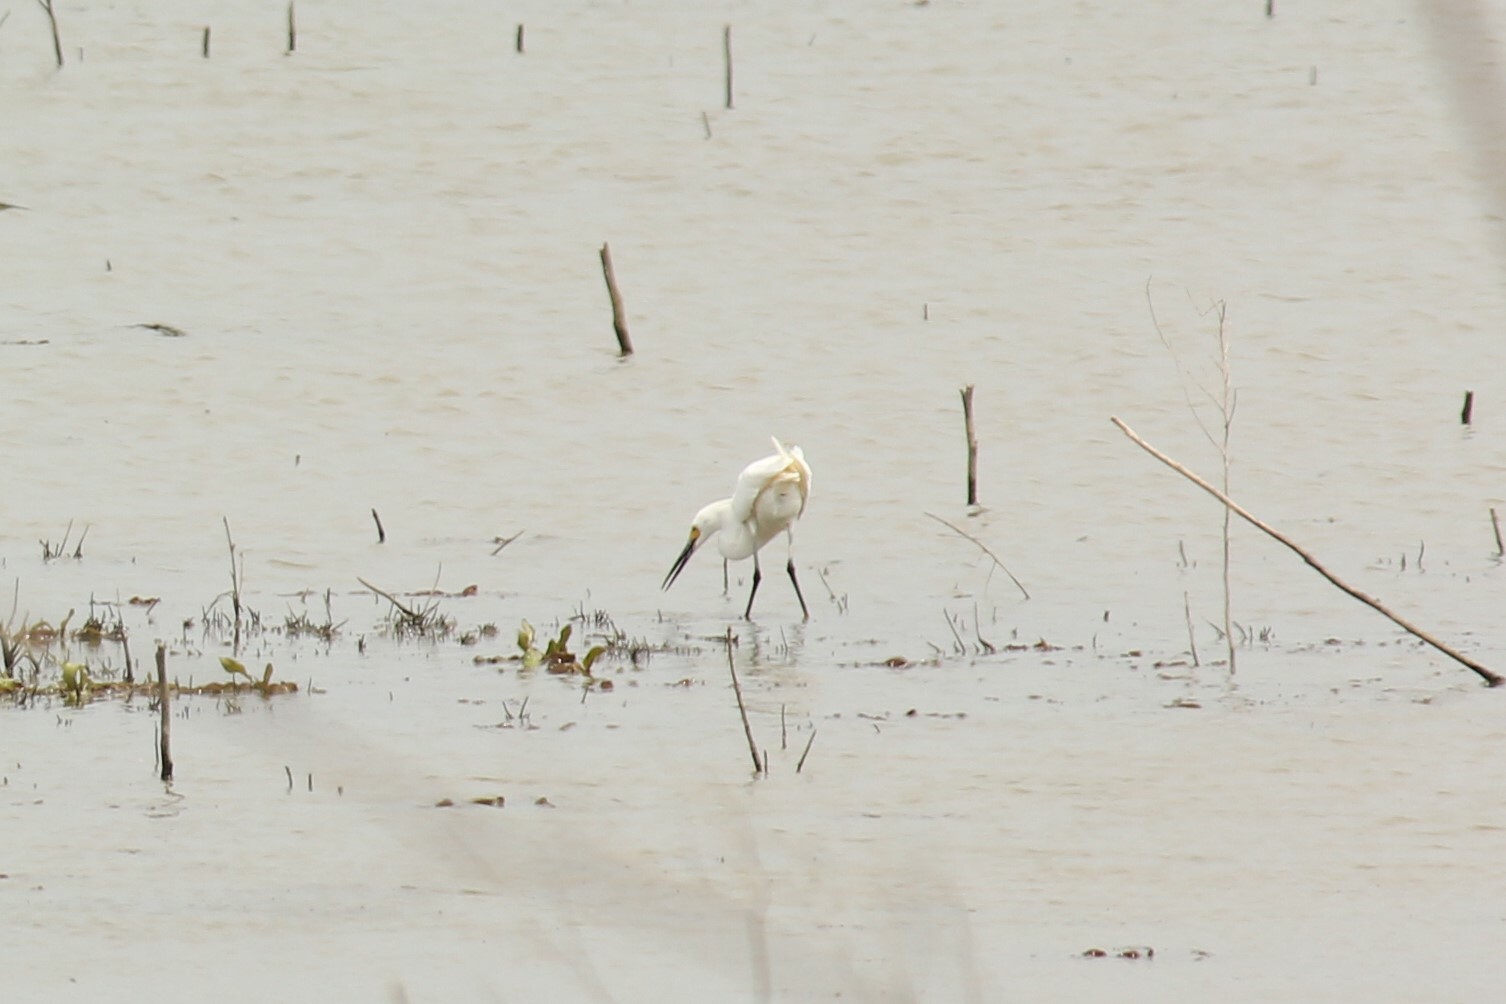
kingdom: Animalia
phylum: Chordata
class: Aves
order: Pelecaniformes
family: Ardeidae
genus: Egretta
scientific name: Egretta thula
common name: Snowy egret
